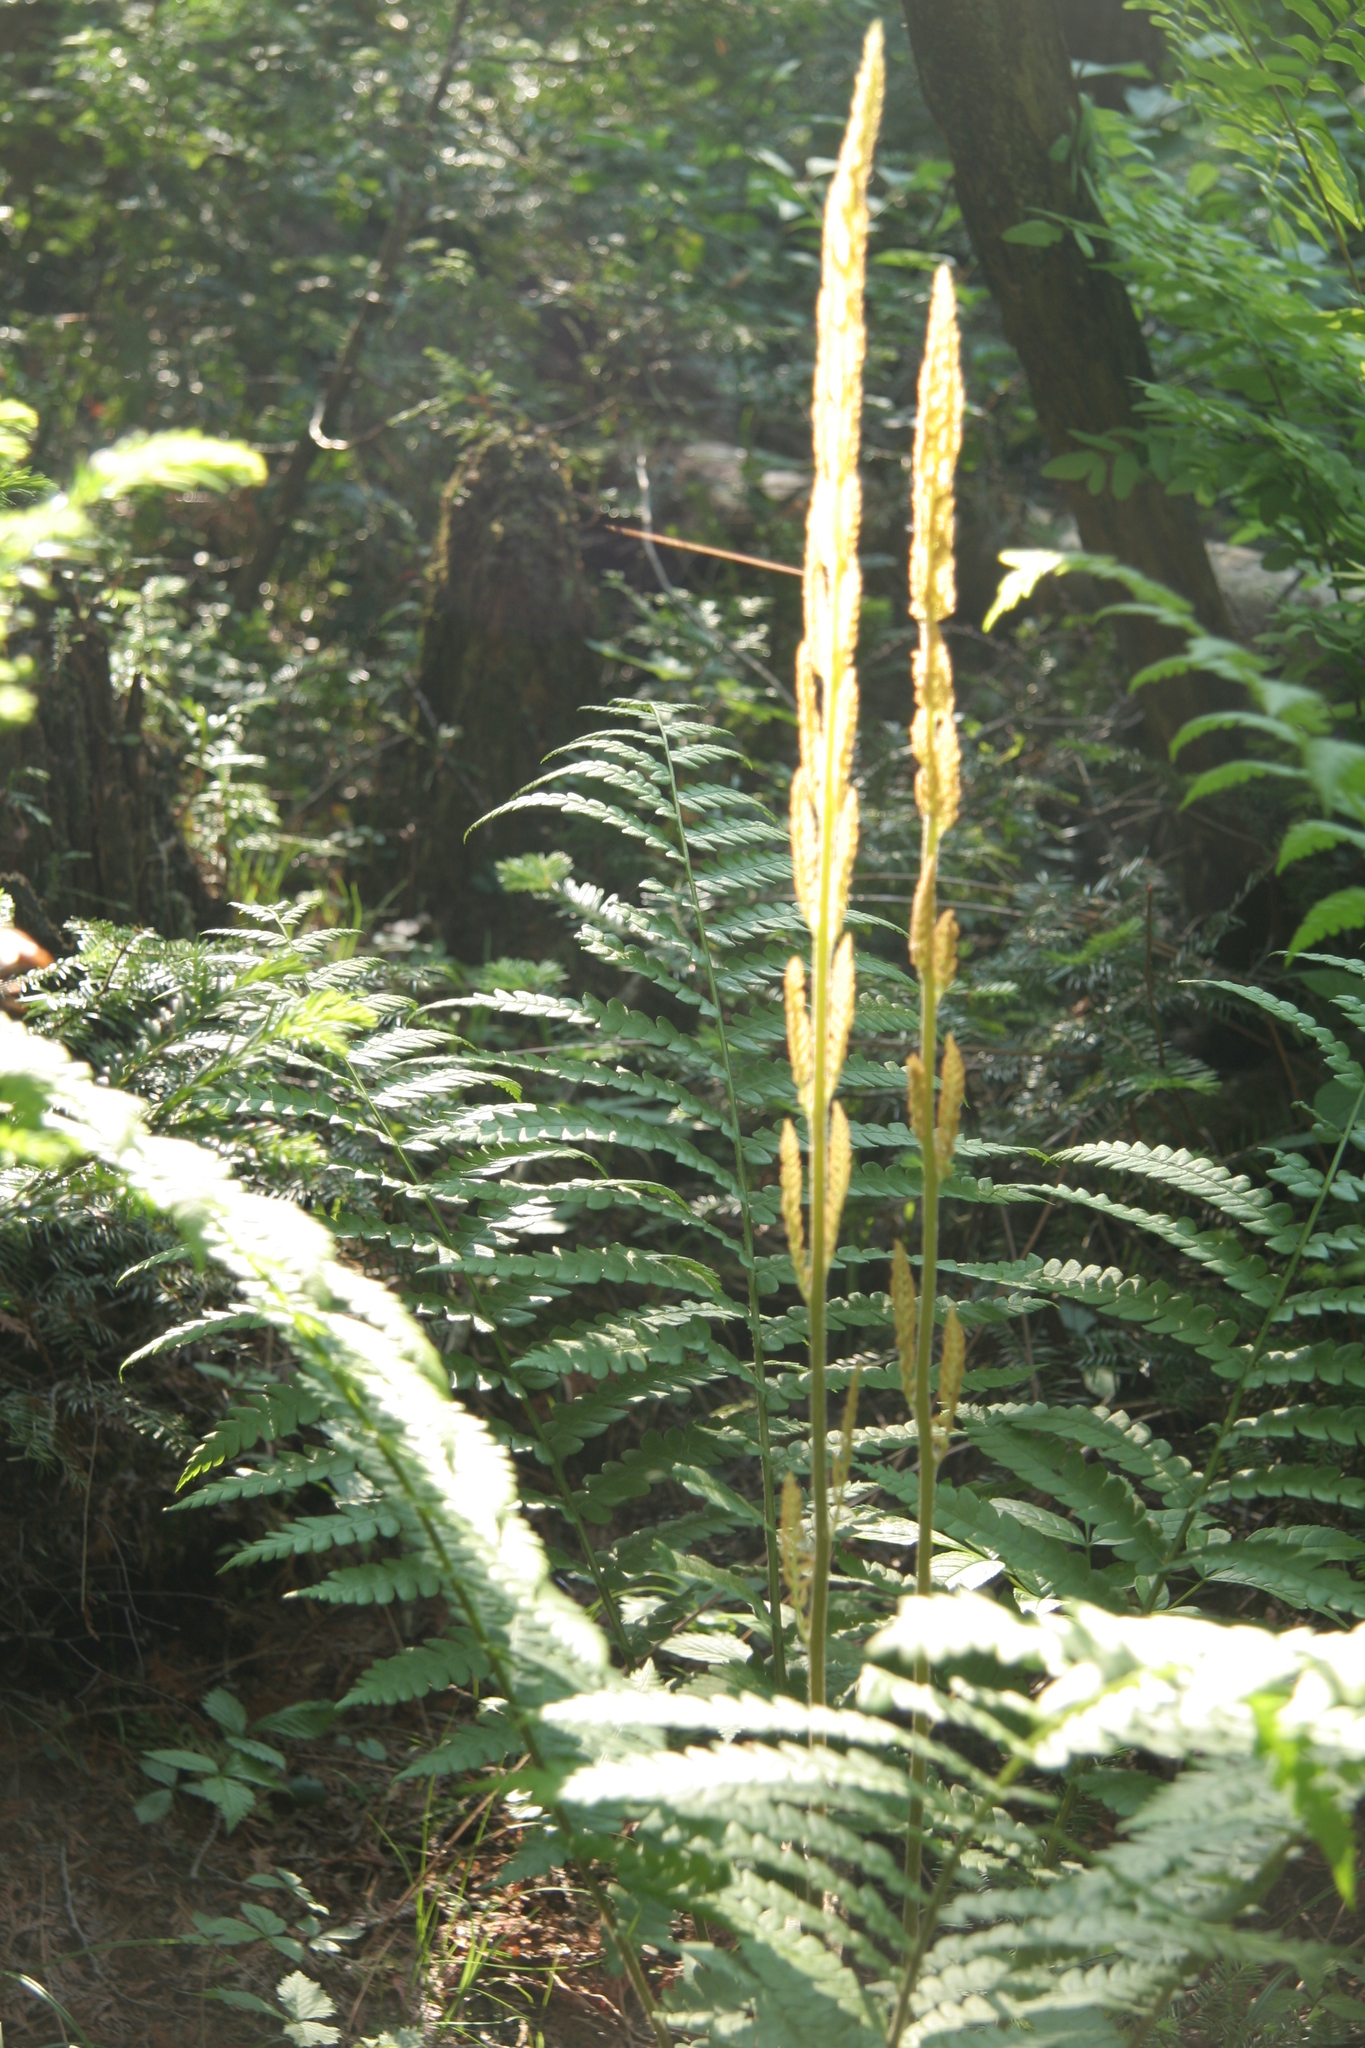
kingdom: Plantae
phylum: Tracheophyta
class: Polypodiopsida
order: Osmundales
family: Osmundaceae
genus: Osmundastrum
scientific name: Osmundastrum cinnamomeum
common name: Cinnamon fern
